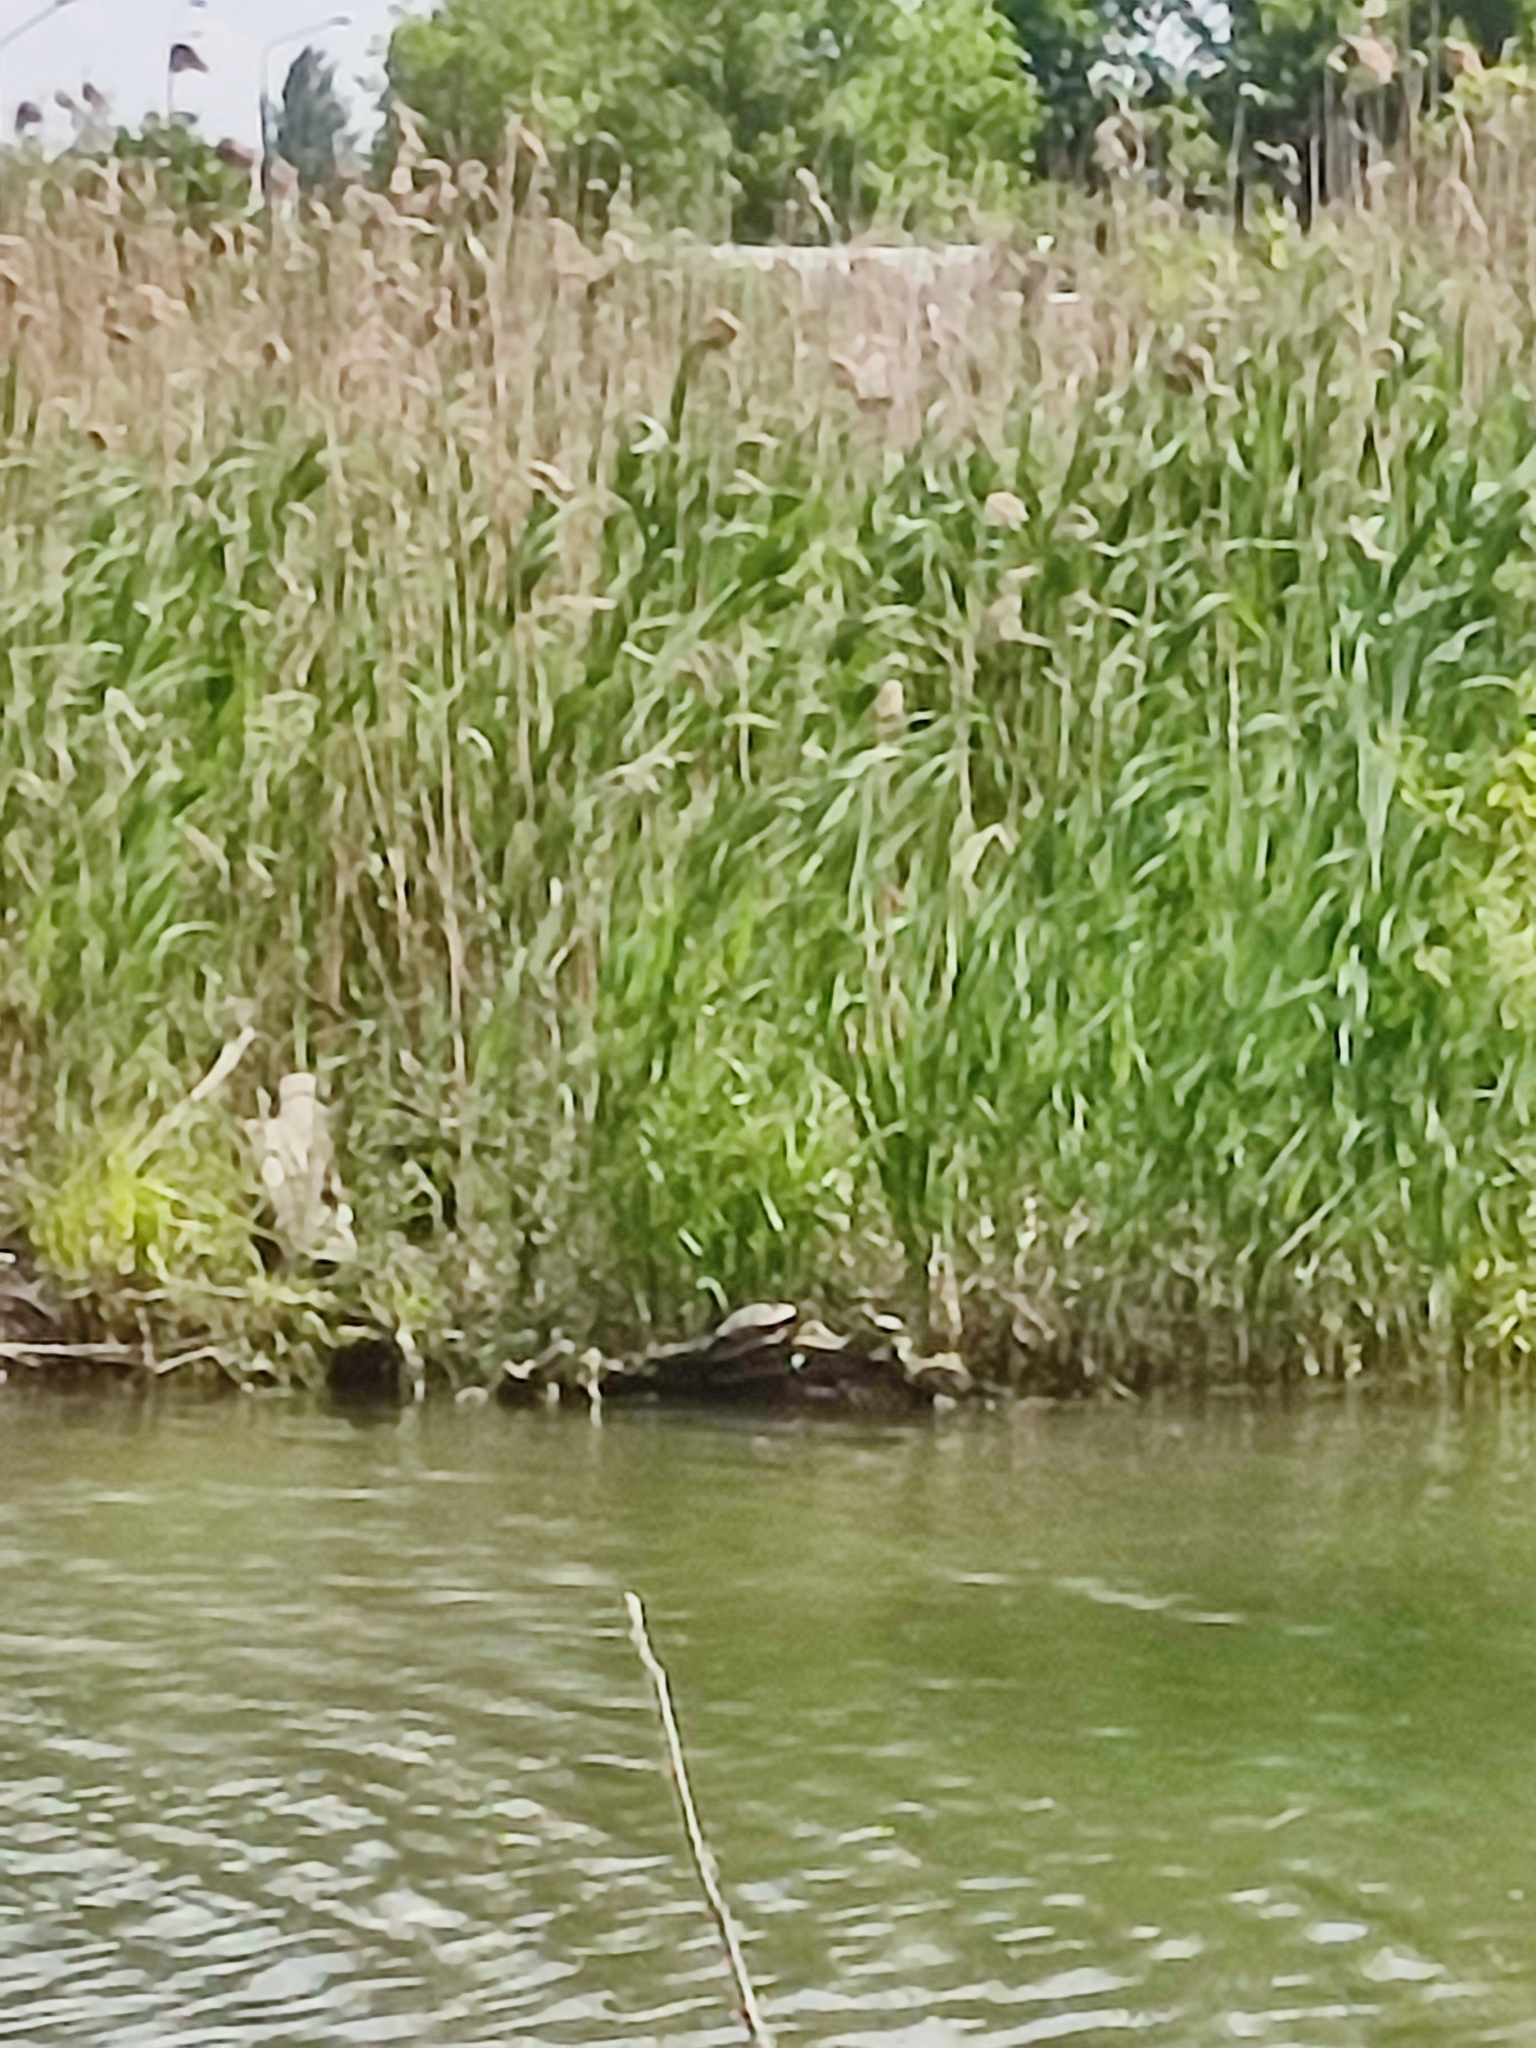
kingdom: Animalia
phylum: Chordata
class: Testudines
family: Emydidae
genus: Emys
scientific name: Emys orbicularis
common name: European pond turtle
